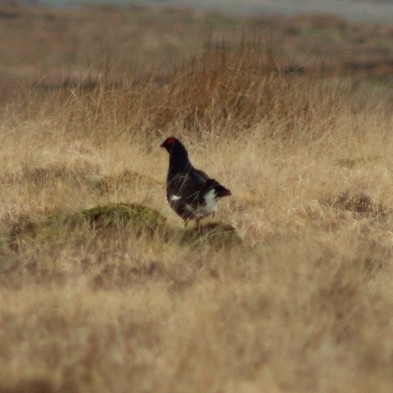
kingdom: Animalia
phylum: Chordata
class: Aves
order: Galliformes
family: Phasianidae
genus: Lyrurus
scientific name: Lyrurus tetrix
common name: Black grouse
